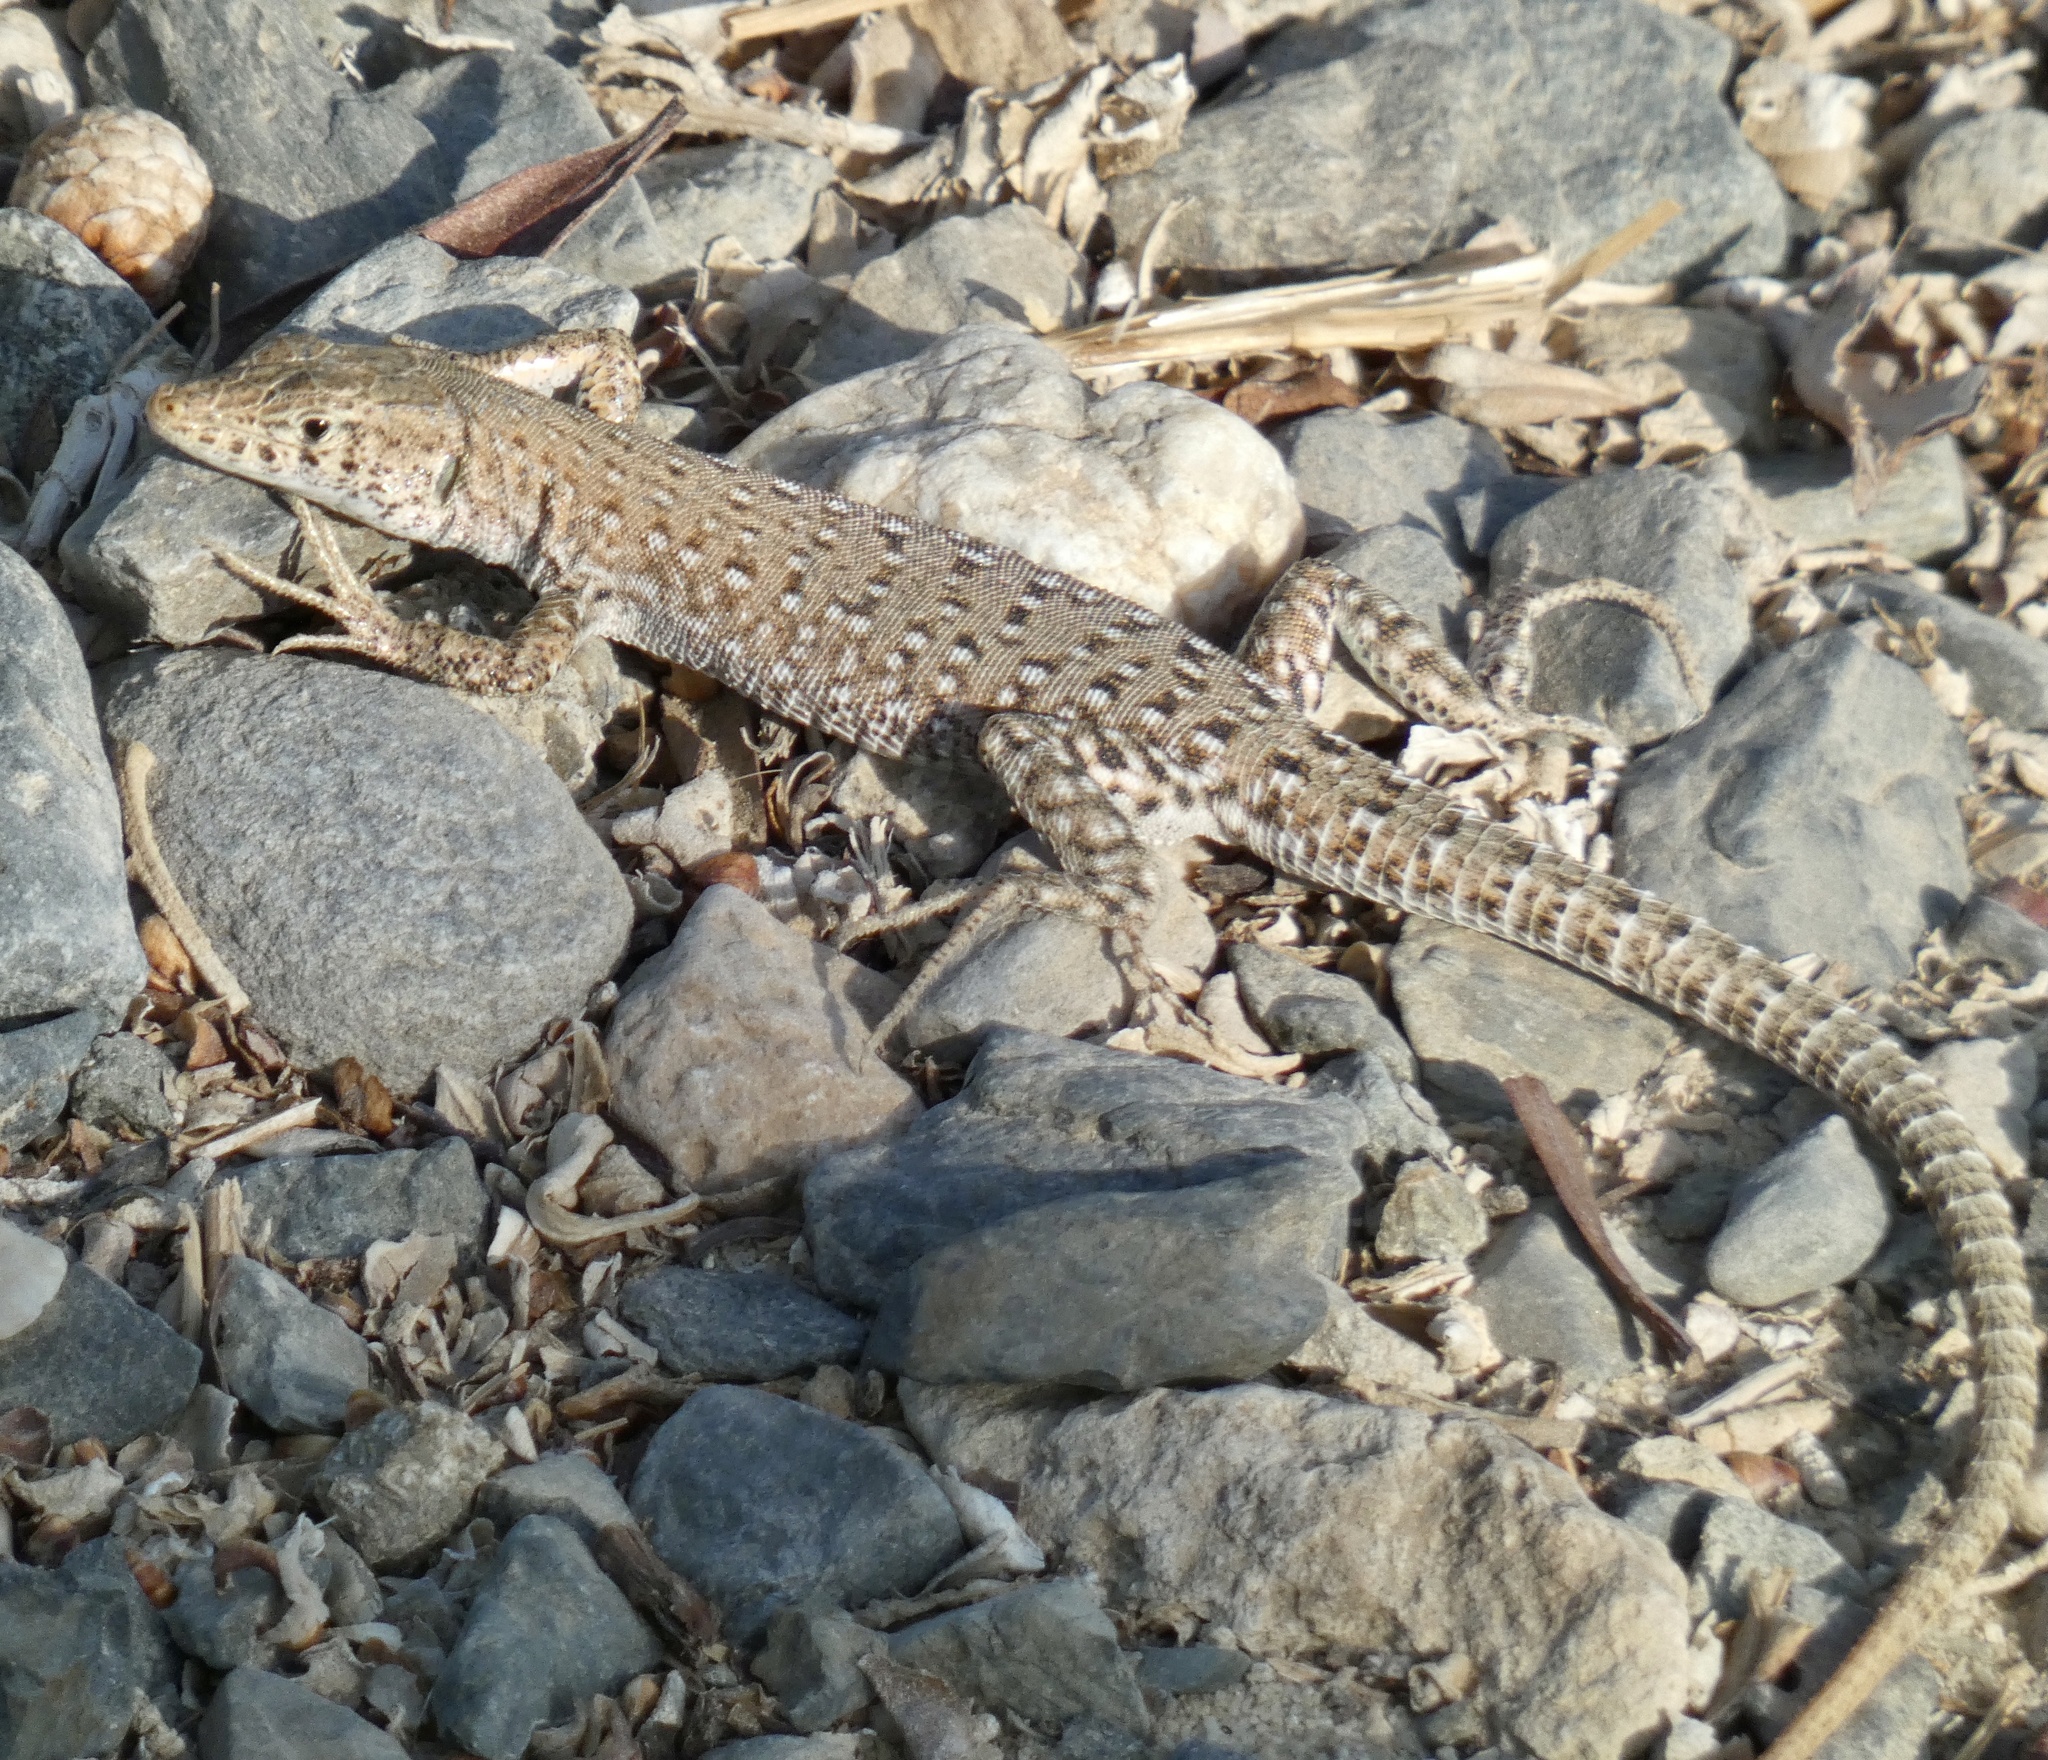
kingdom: Animalia
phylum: Chordata
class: Squamata
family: Lacertidae
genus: Mesalina
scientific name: Mesalina guttulata
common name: Desert lacerta
